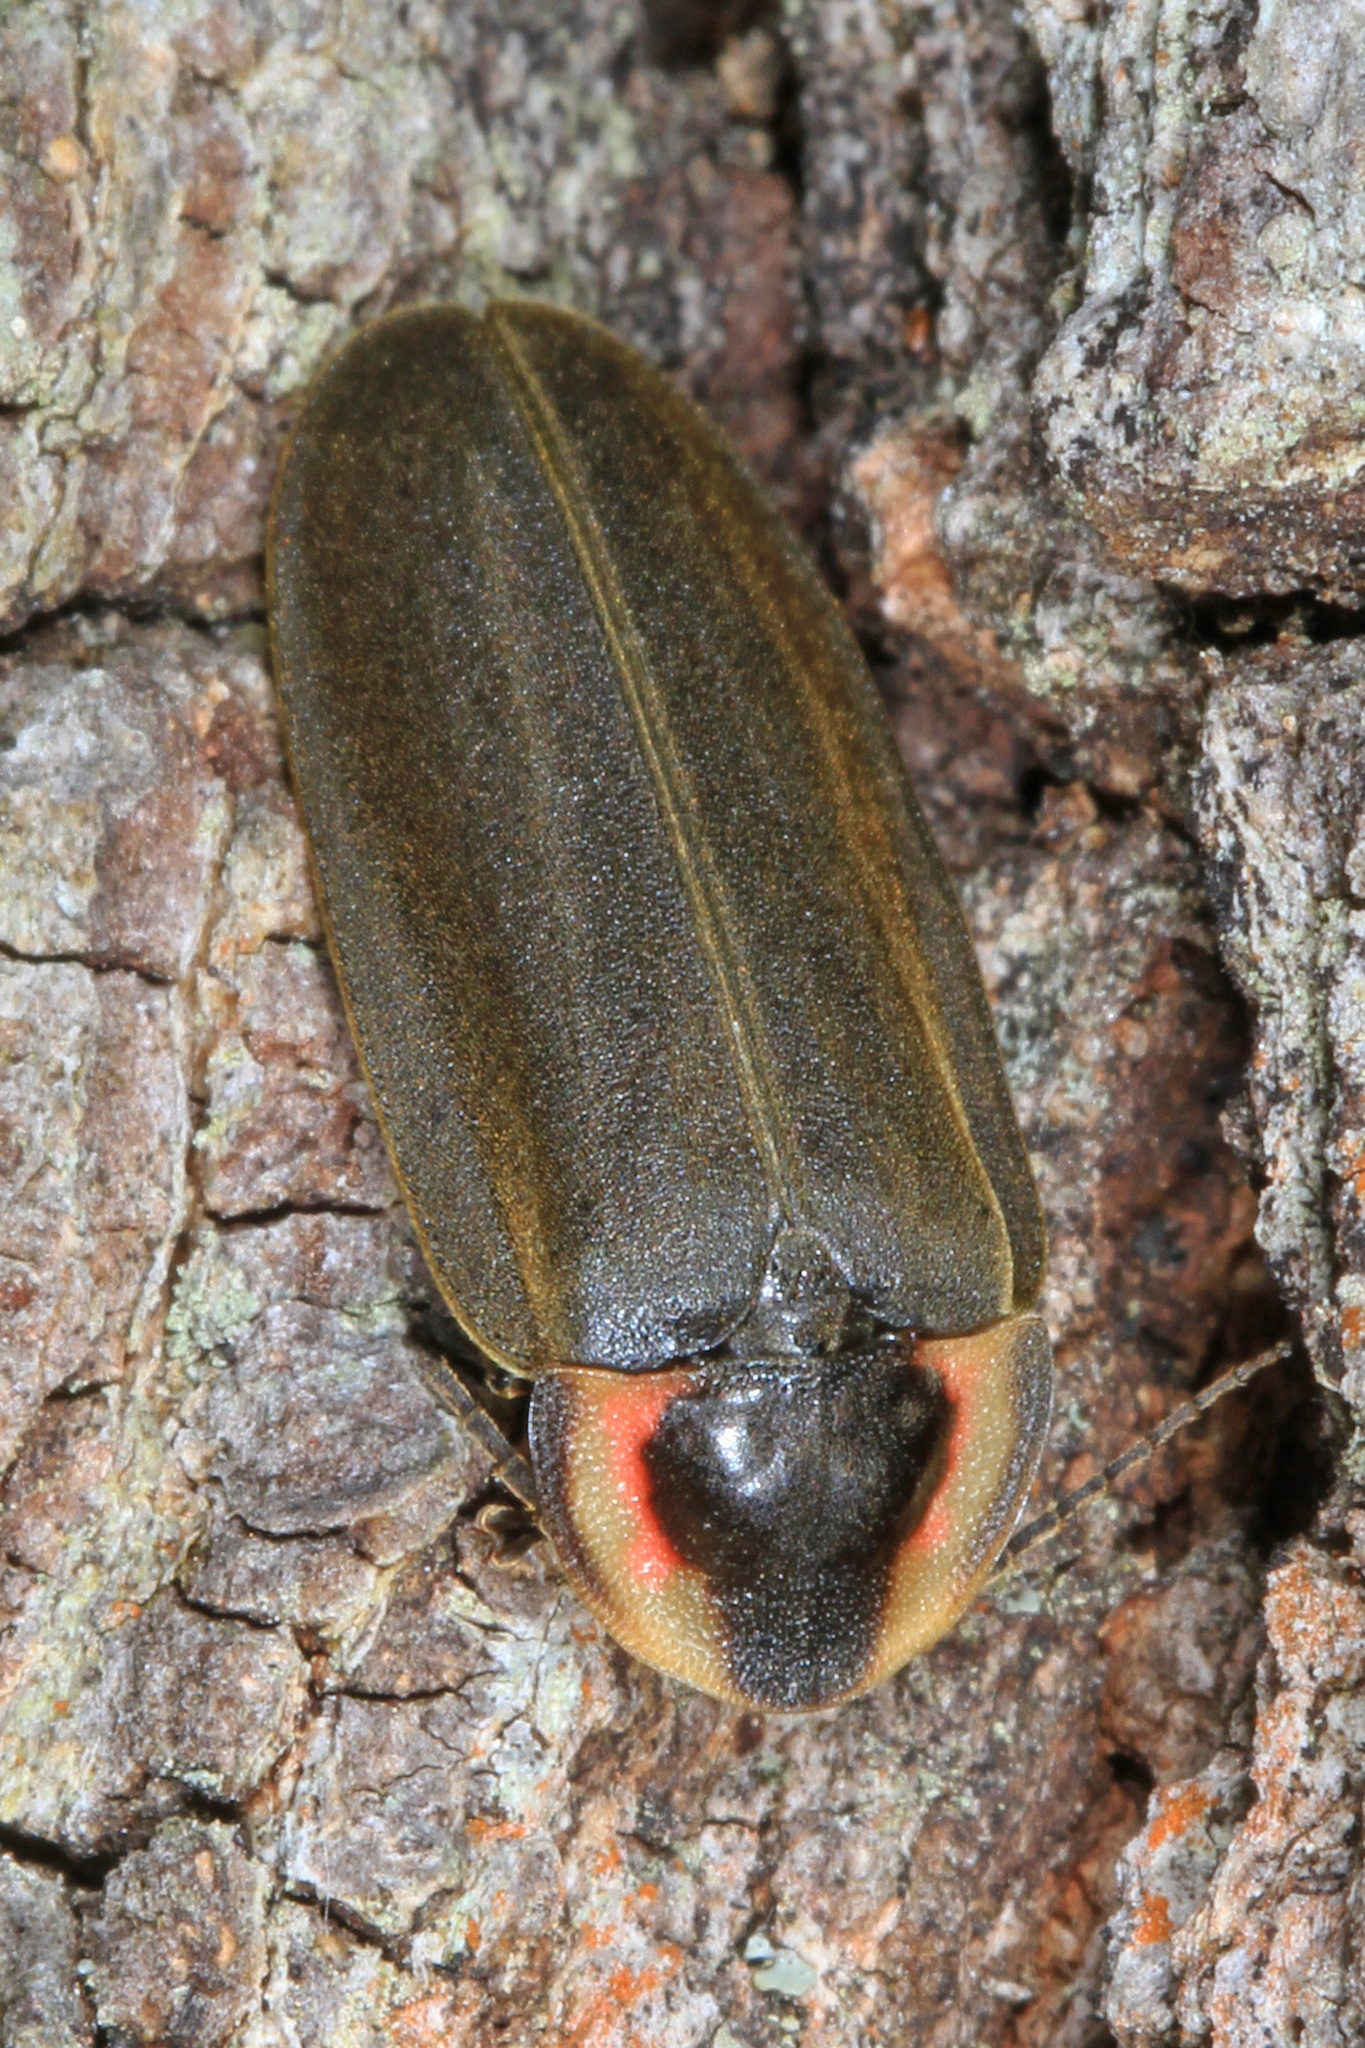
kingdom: Animalia
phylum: Arthropoda
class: Insecta
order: Coleoptera
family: Lampyridae
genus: Photinus
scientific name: Photinus corrusca
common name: Winter firefly
